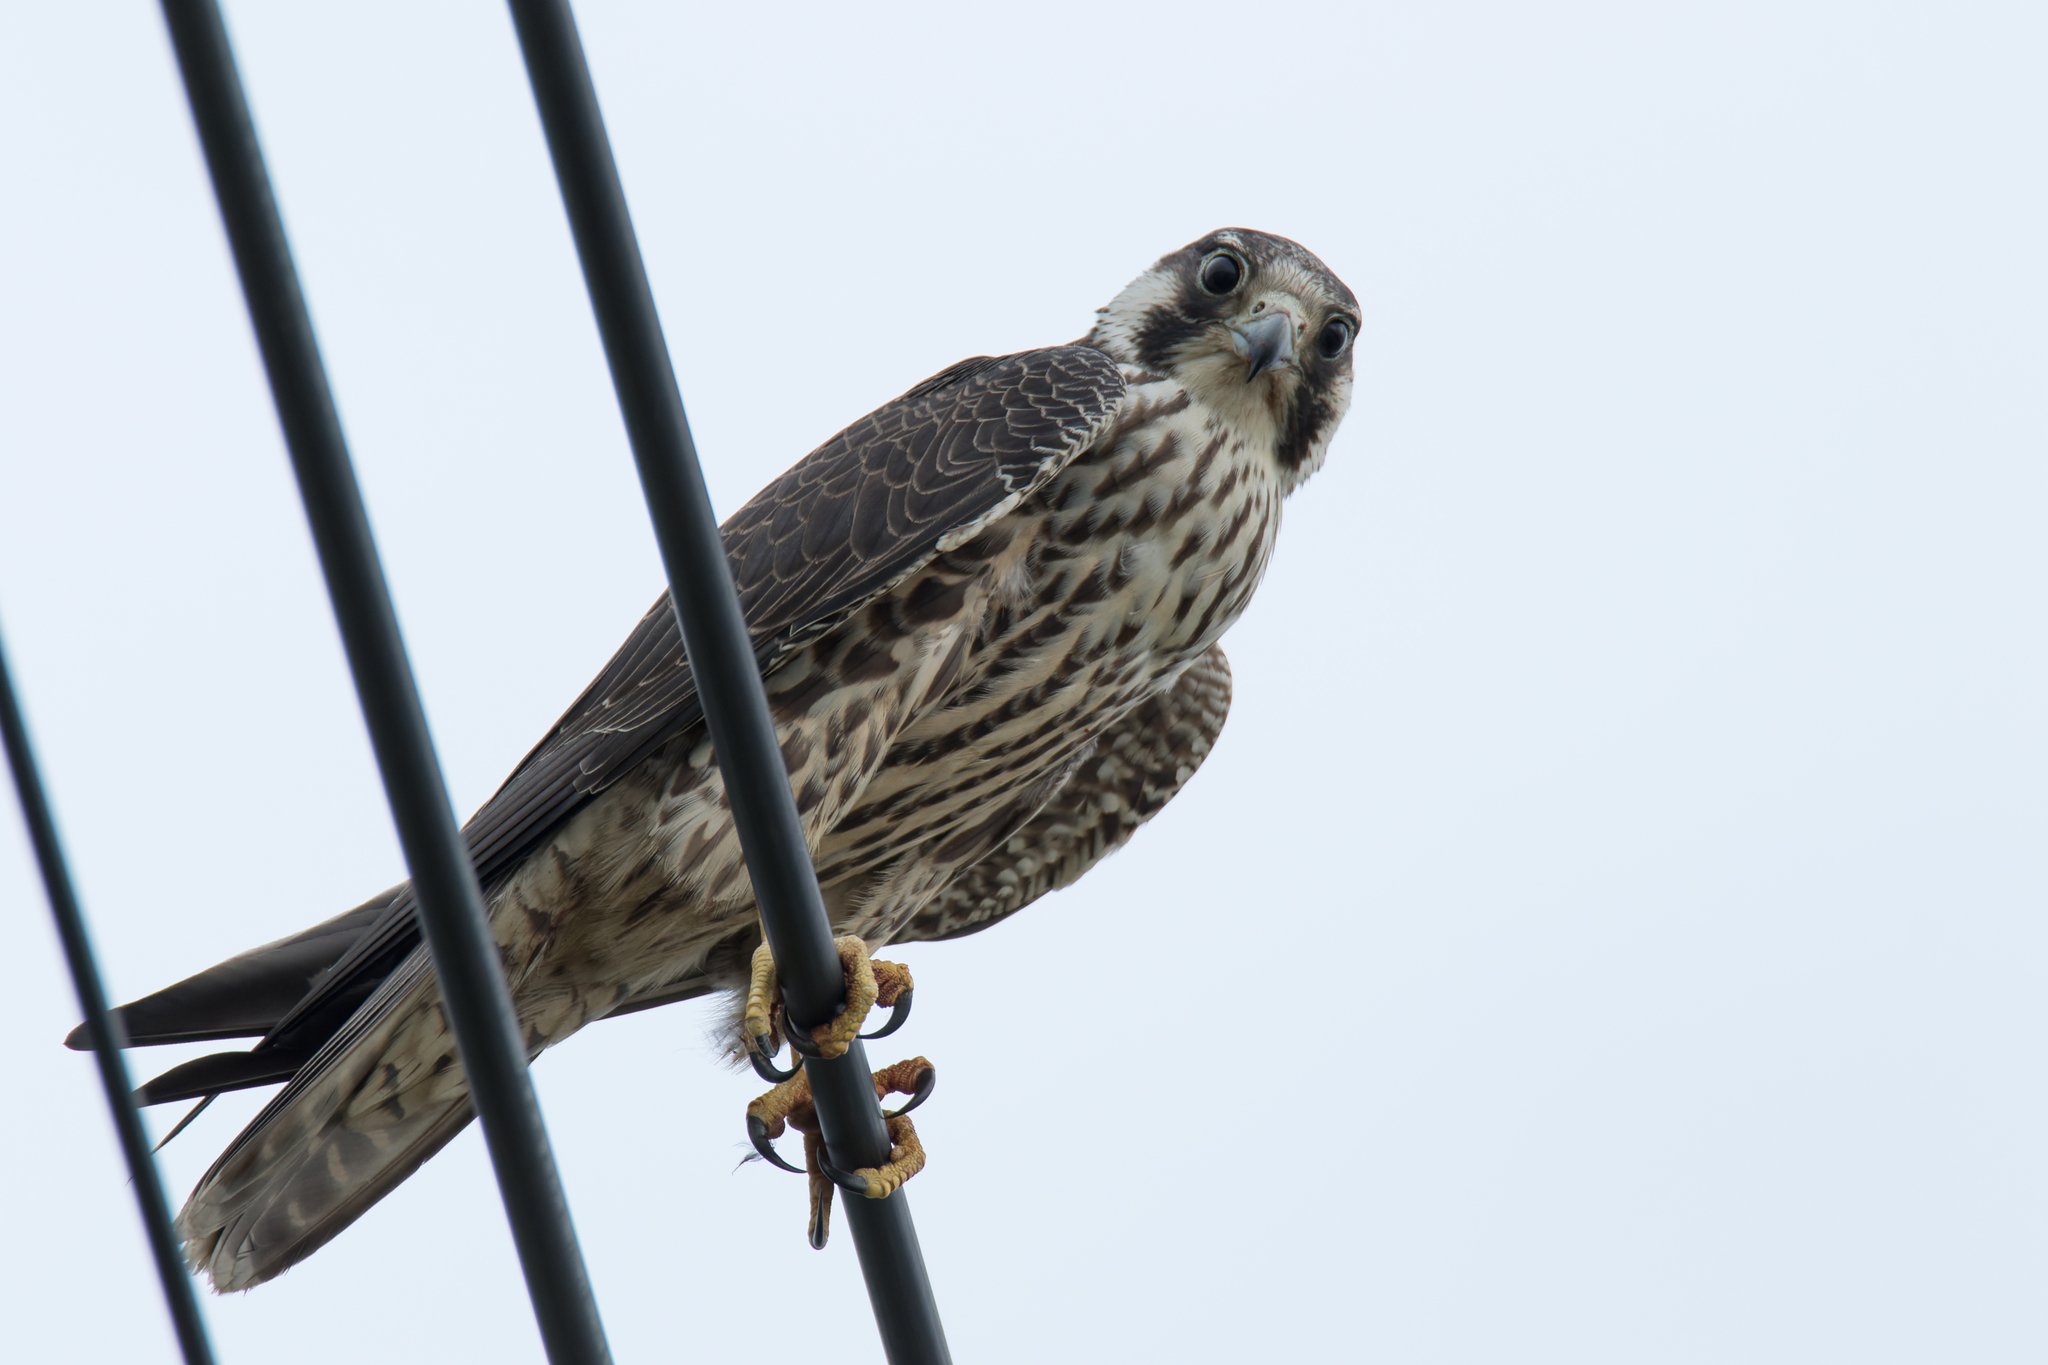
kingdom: Animalia
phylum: Chordata
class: Aves
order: Falconiformes
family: Falconidae
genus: Falco
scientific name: Falco peregrinus
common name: Peregrine falcon
